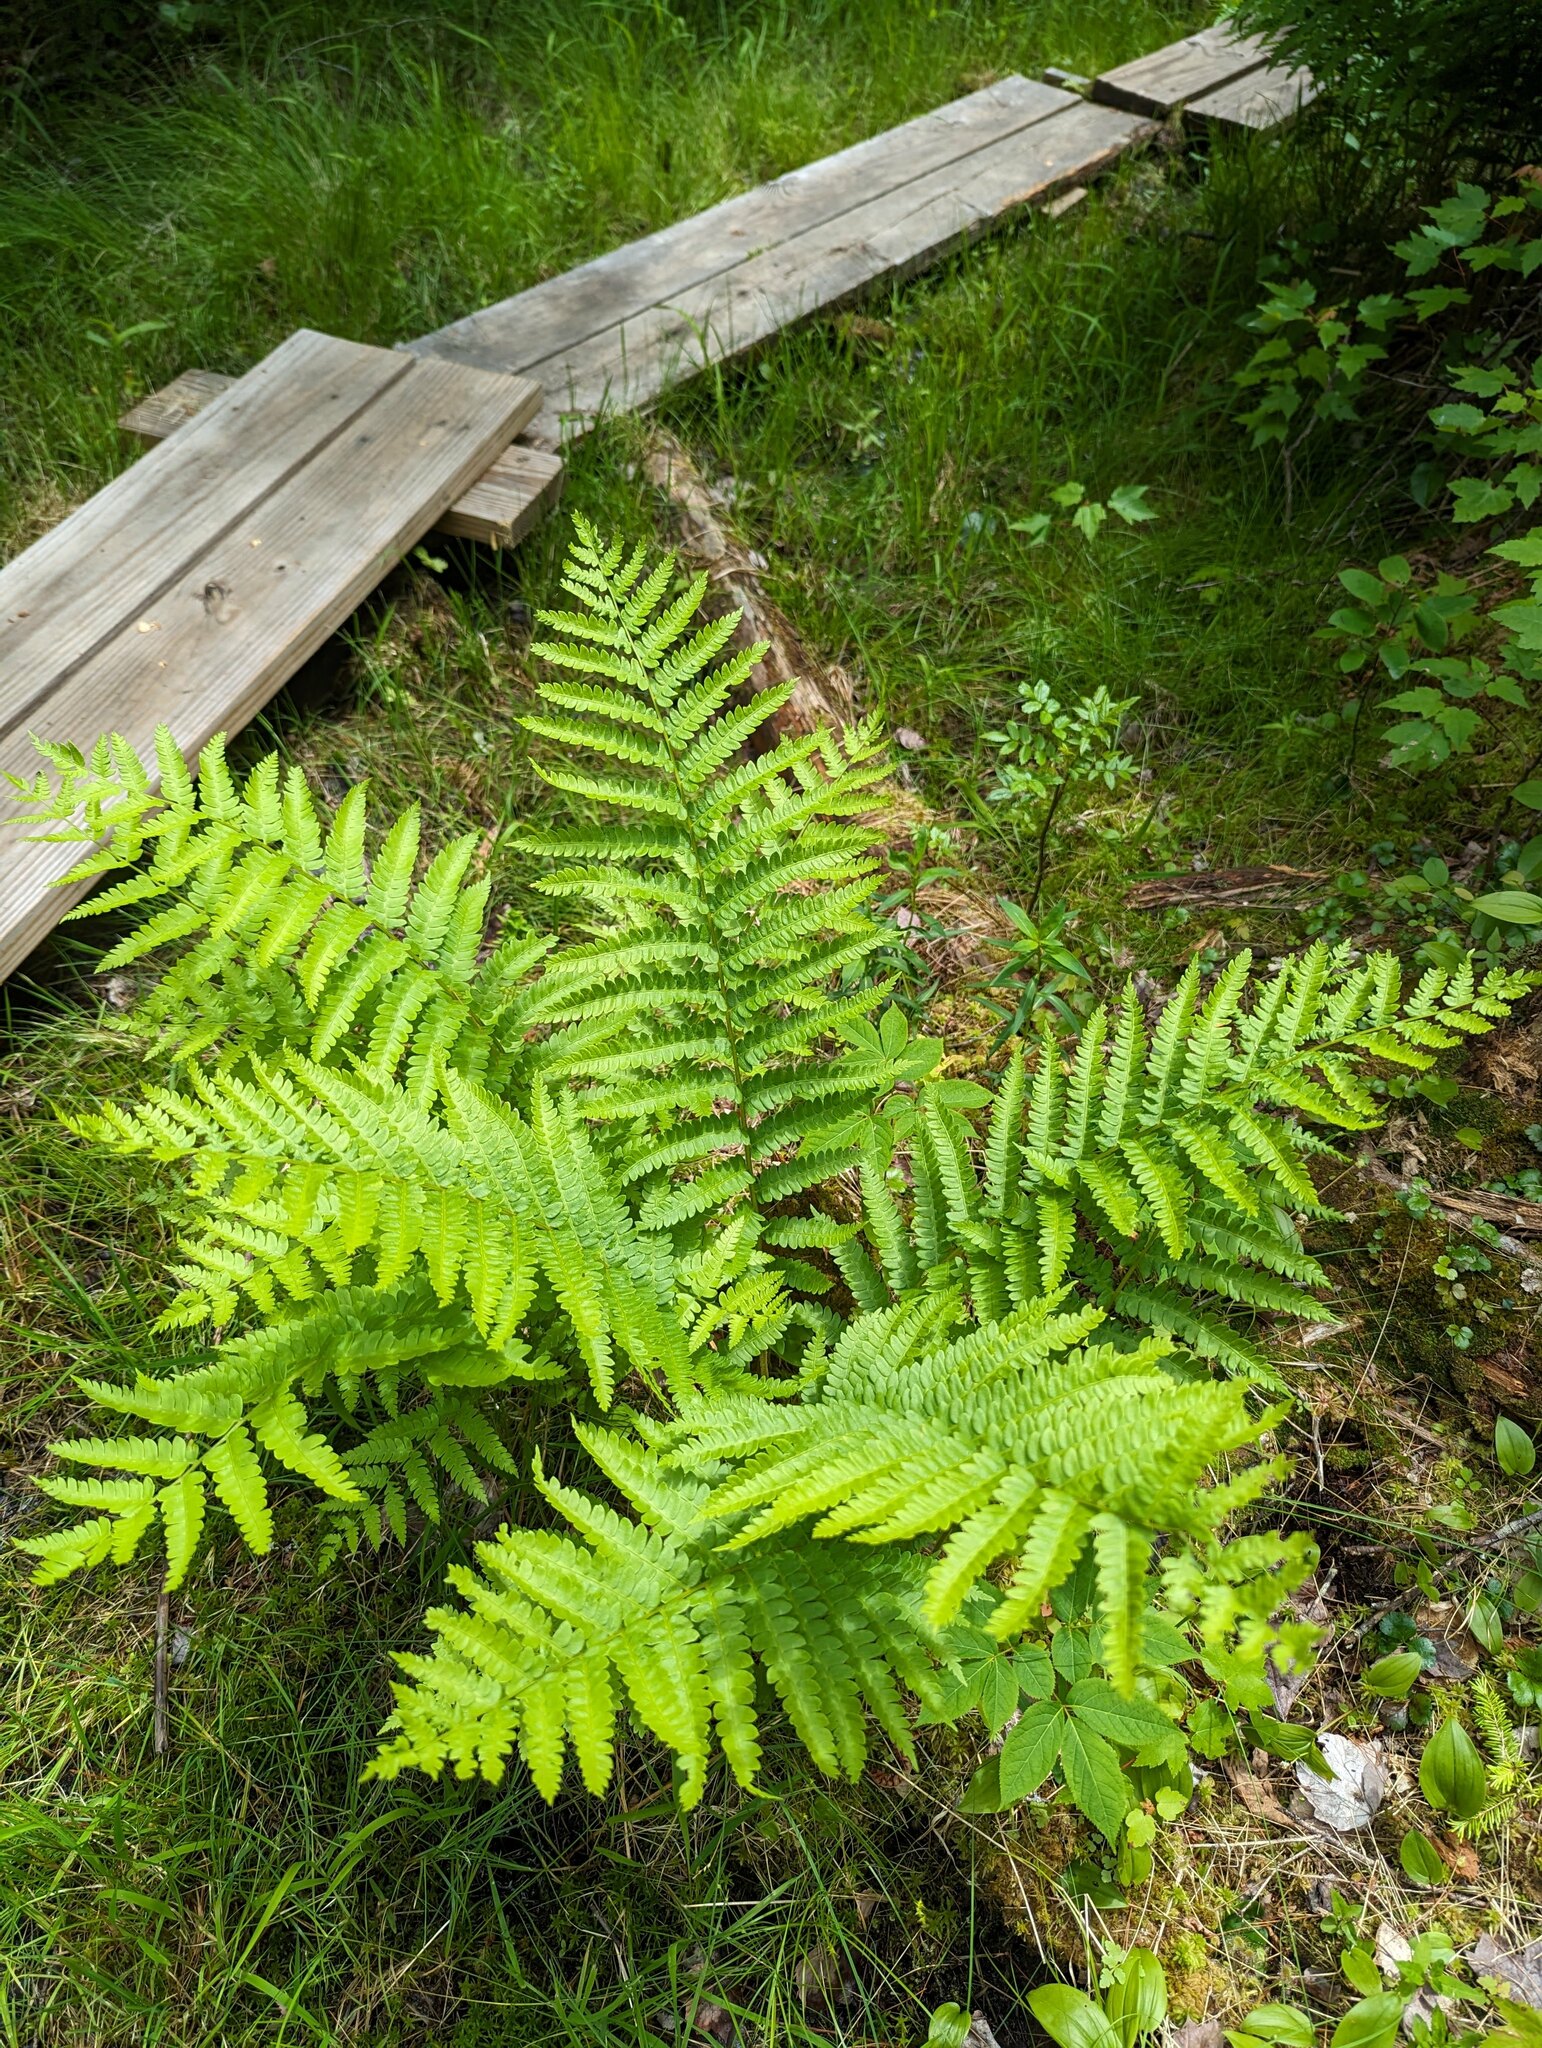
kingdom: Plantae
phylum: Tracheophyta
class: Polypodiopsida
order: Osmundales
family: Osmundaceae
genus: Osmundastrum
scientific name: Osmundastrum cinnamomeum
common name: Cinnamon fern
